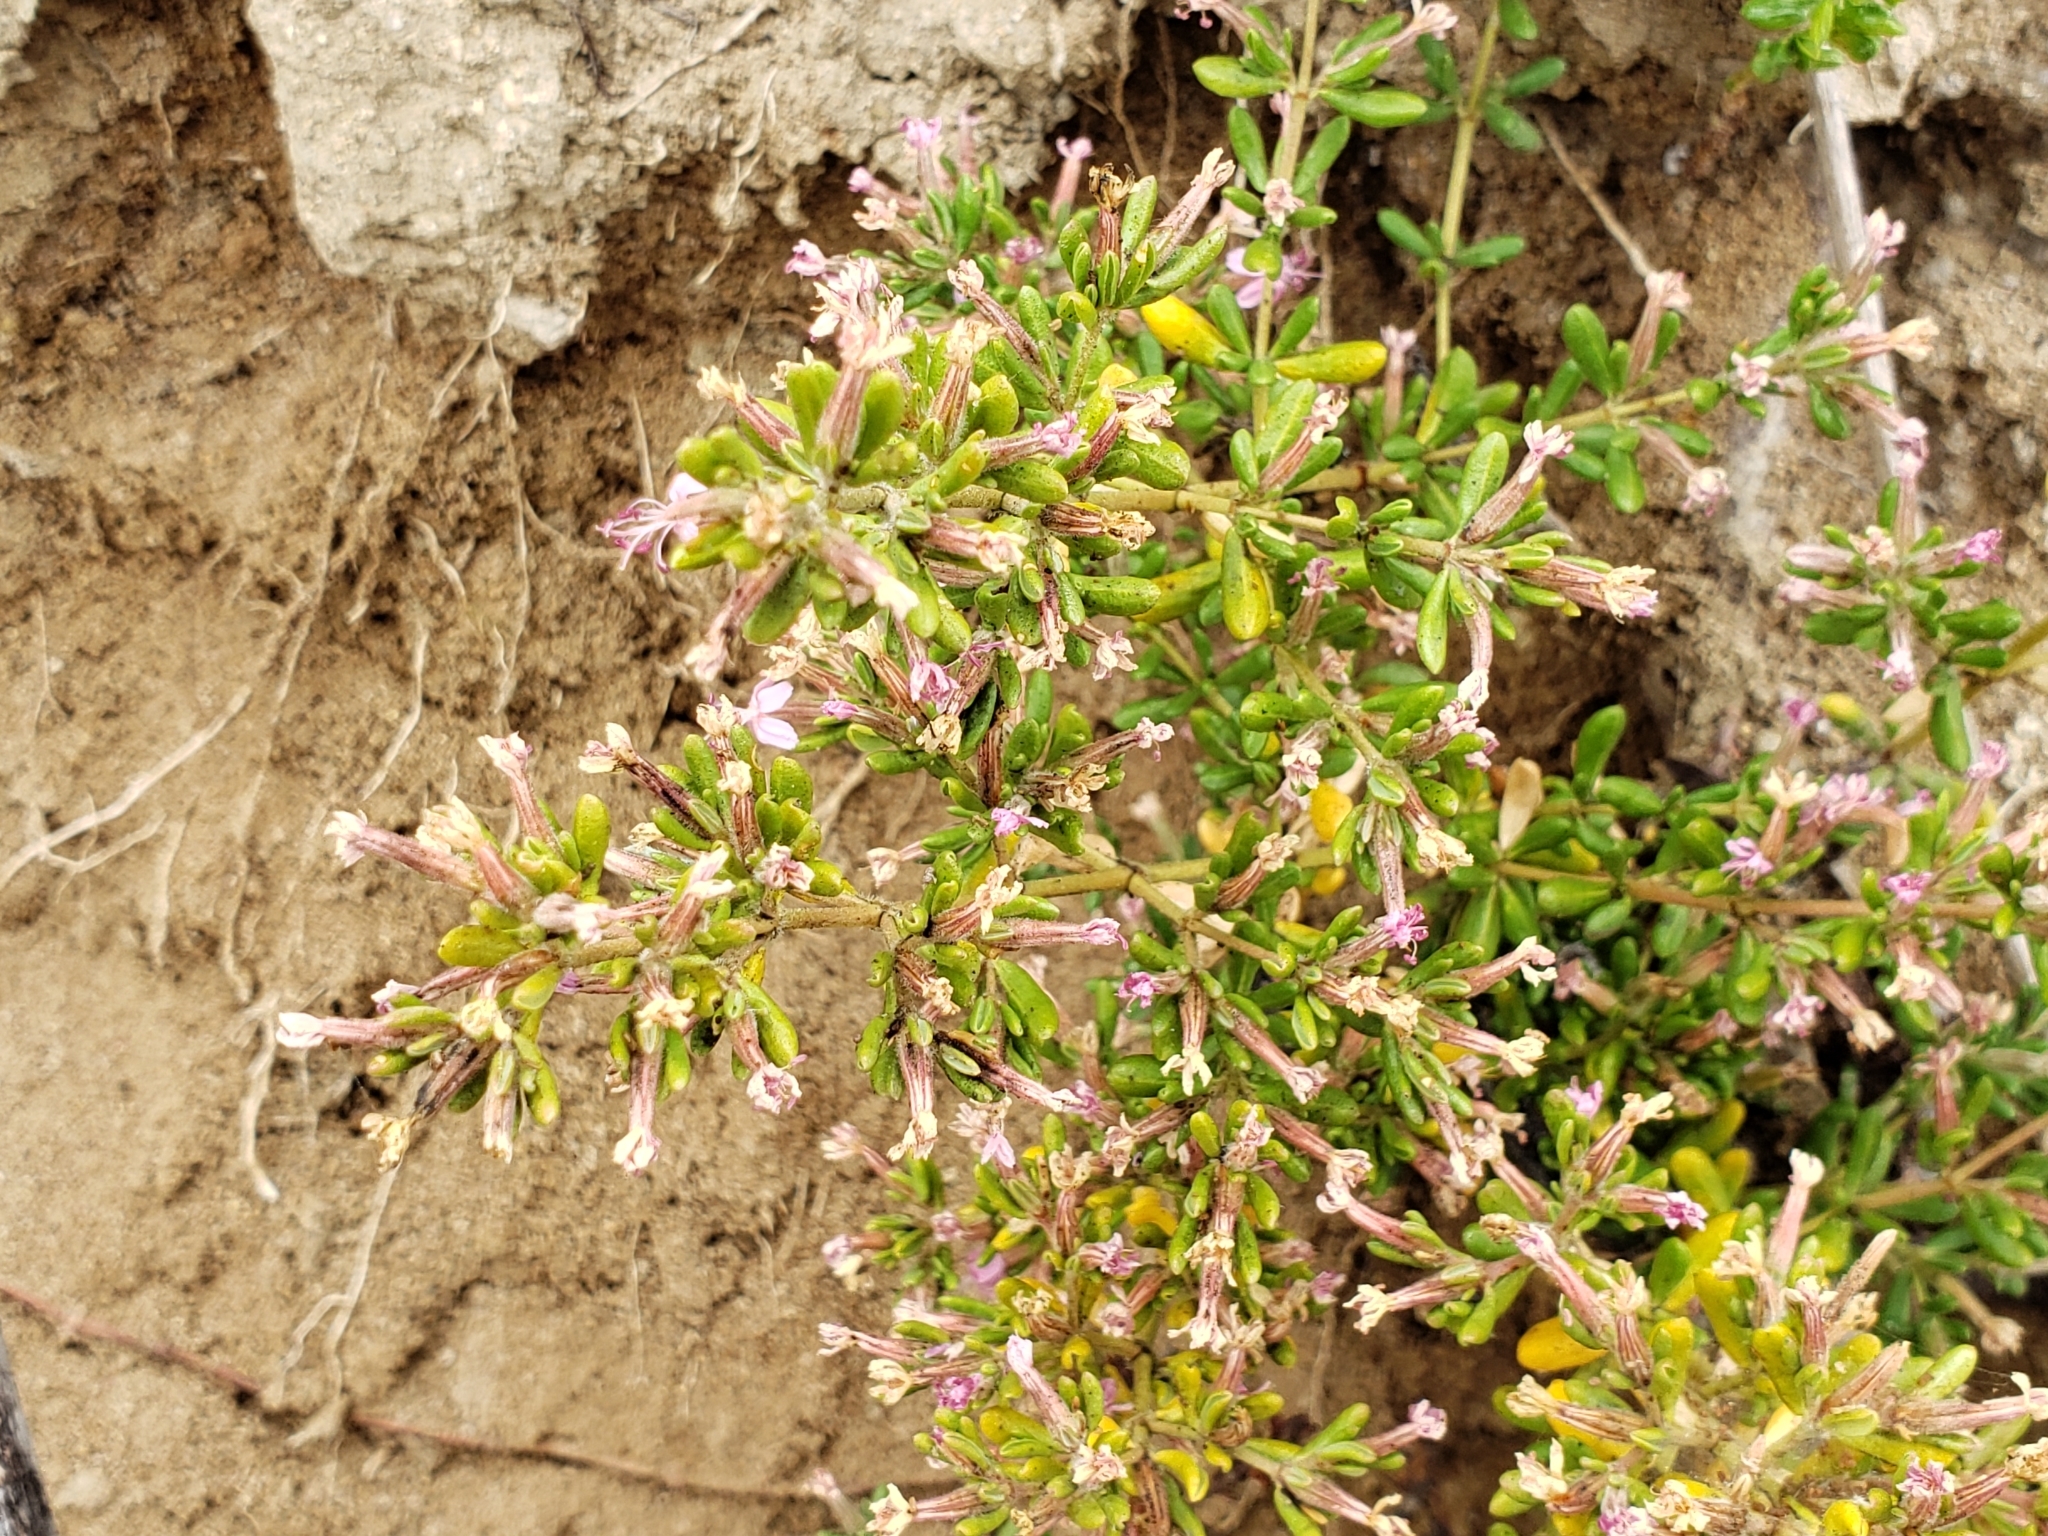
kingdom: Plantae
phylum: Tracheophyta
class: Magnoliopsida
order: Caryophyllales
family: Frankeniaceae
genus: Frankenia
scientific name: Frankenia salina
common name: Alkali seaheath
